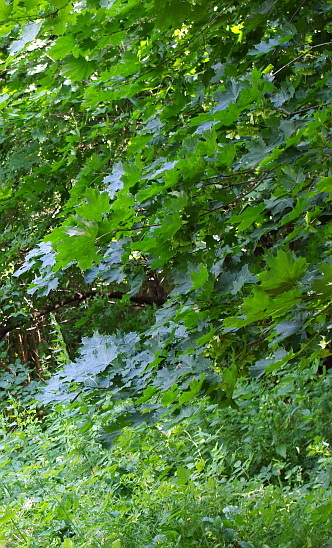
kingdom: Plantae
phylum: Tracheophyta
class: Magnoliopsida
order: Sapindales
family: Sapindaceae
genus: Acer
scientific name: Acer platanoides
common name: Norway maple
